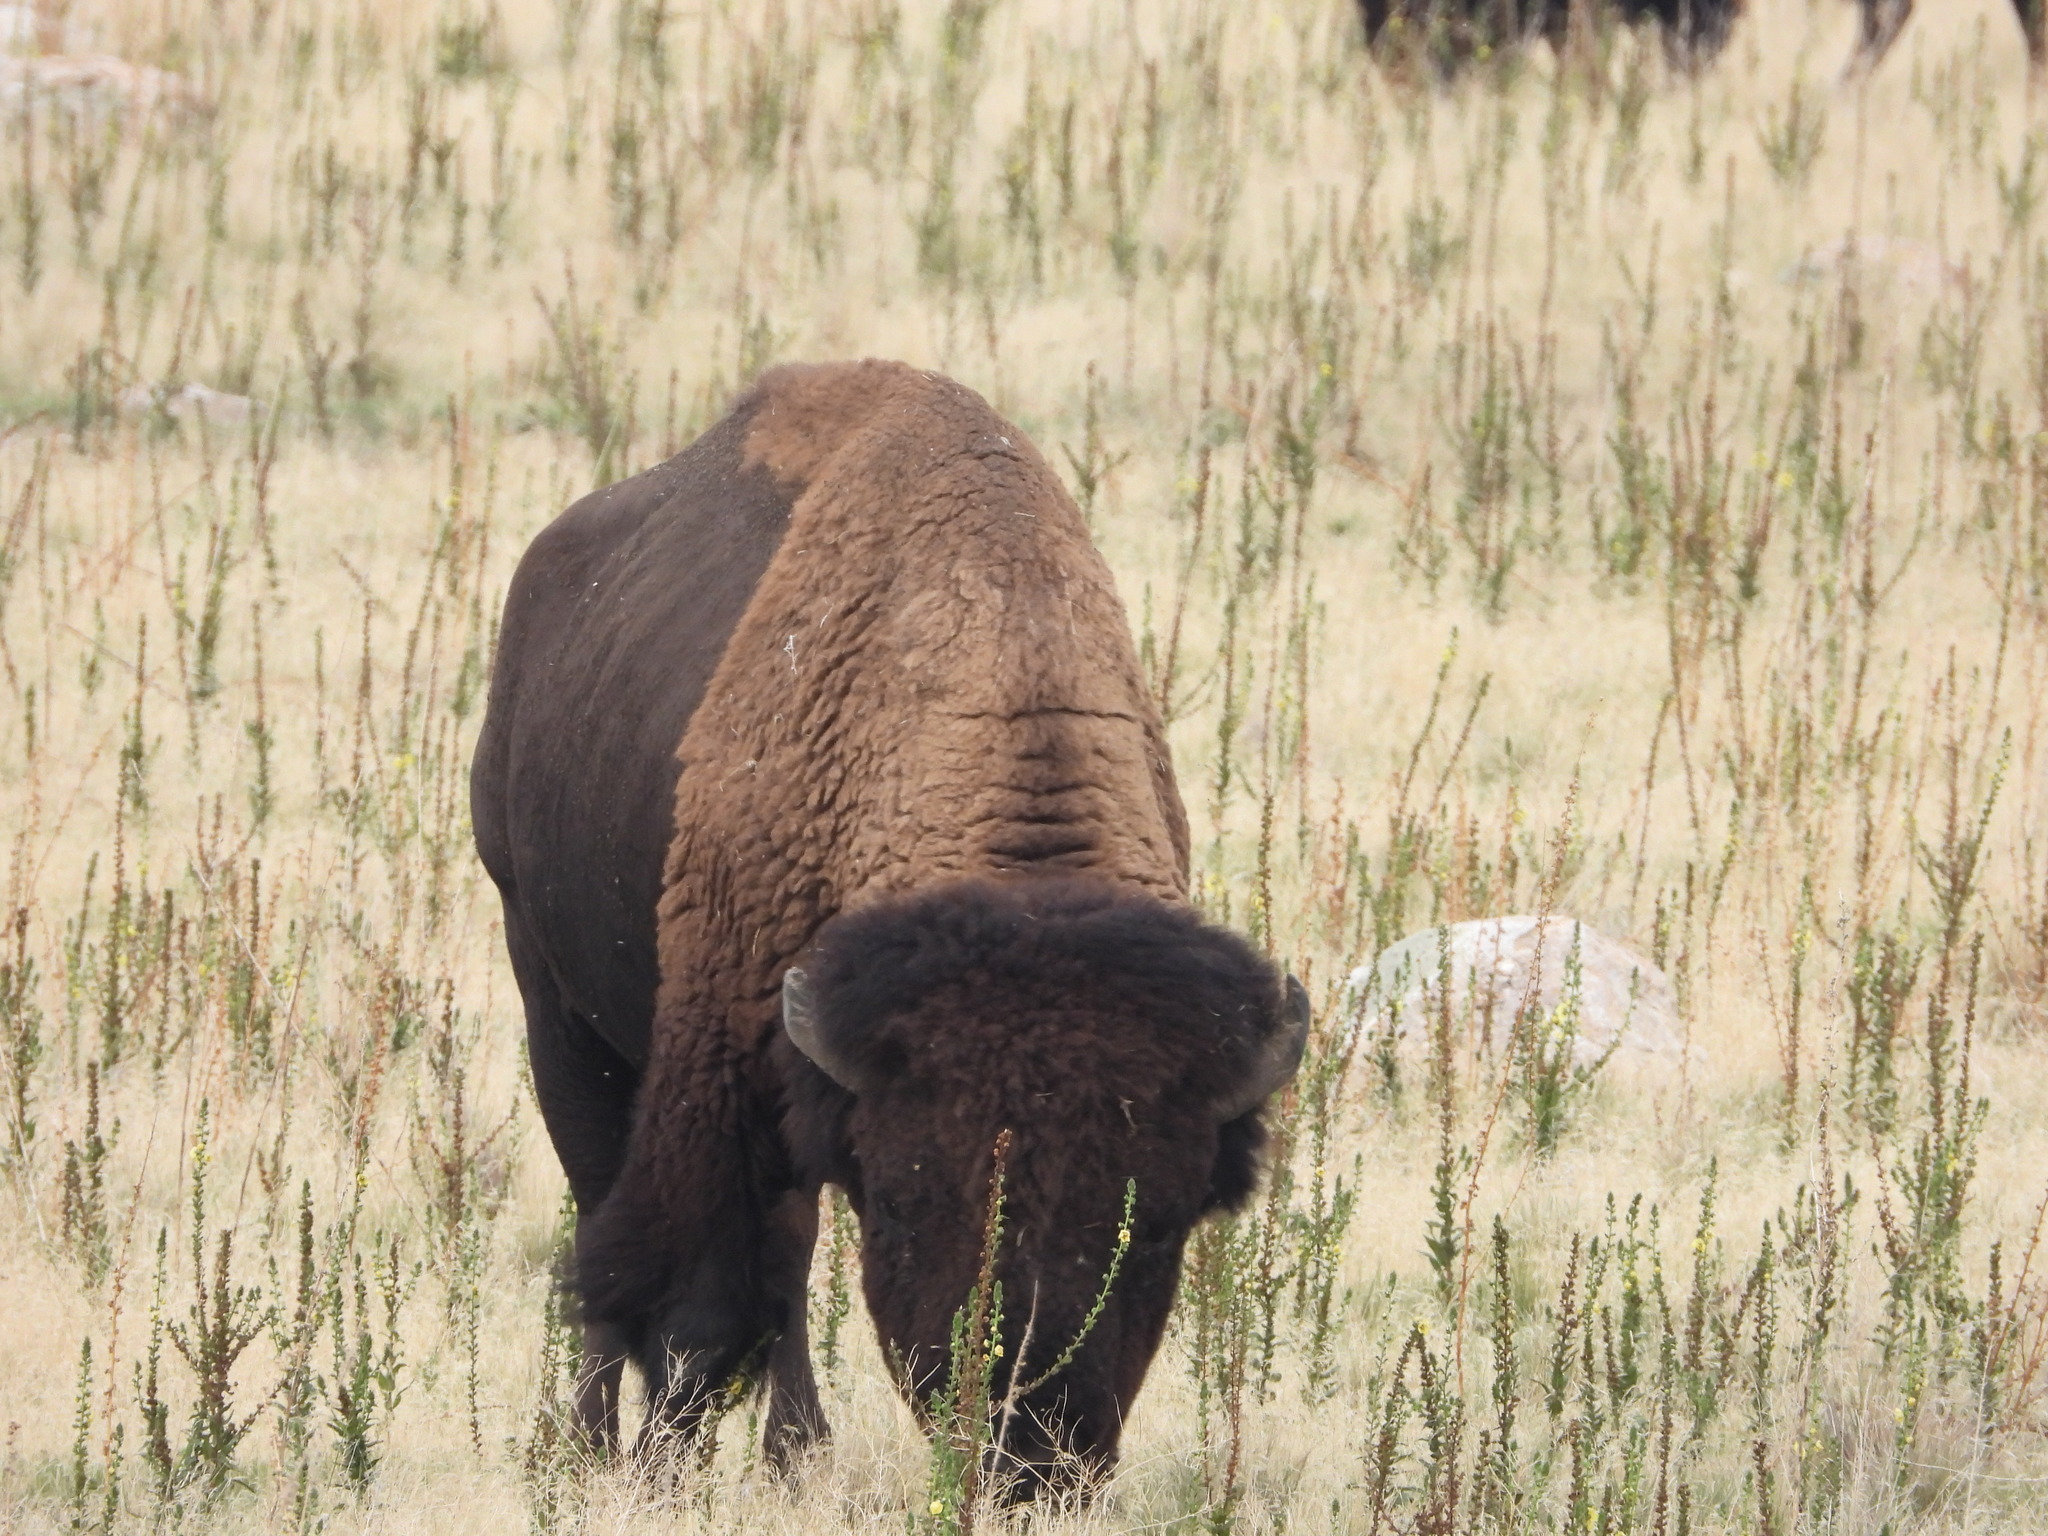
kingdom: Animalia
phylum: Chordata
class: Mammalia
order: Artiodactyla
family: Bovidae
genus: Bison
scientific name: Bison bison
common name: American bison
